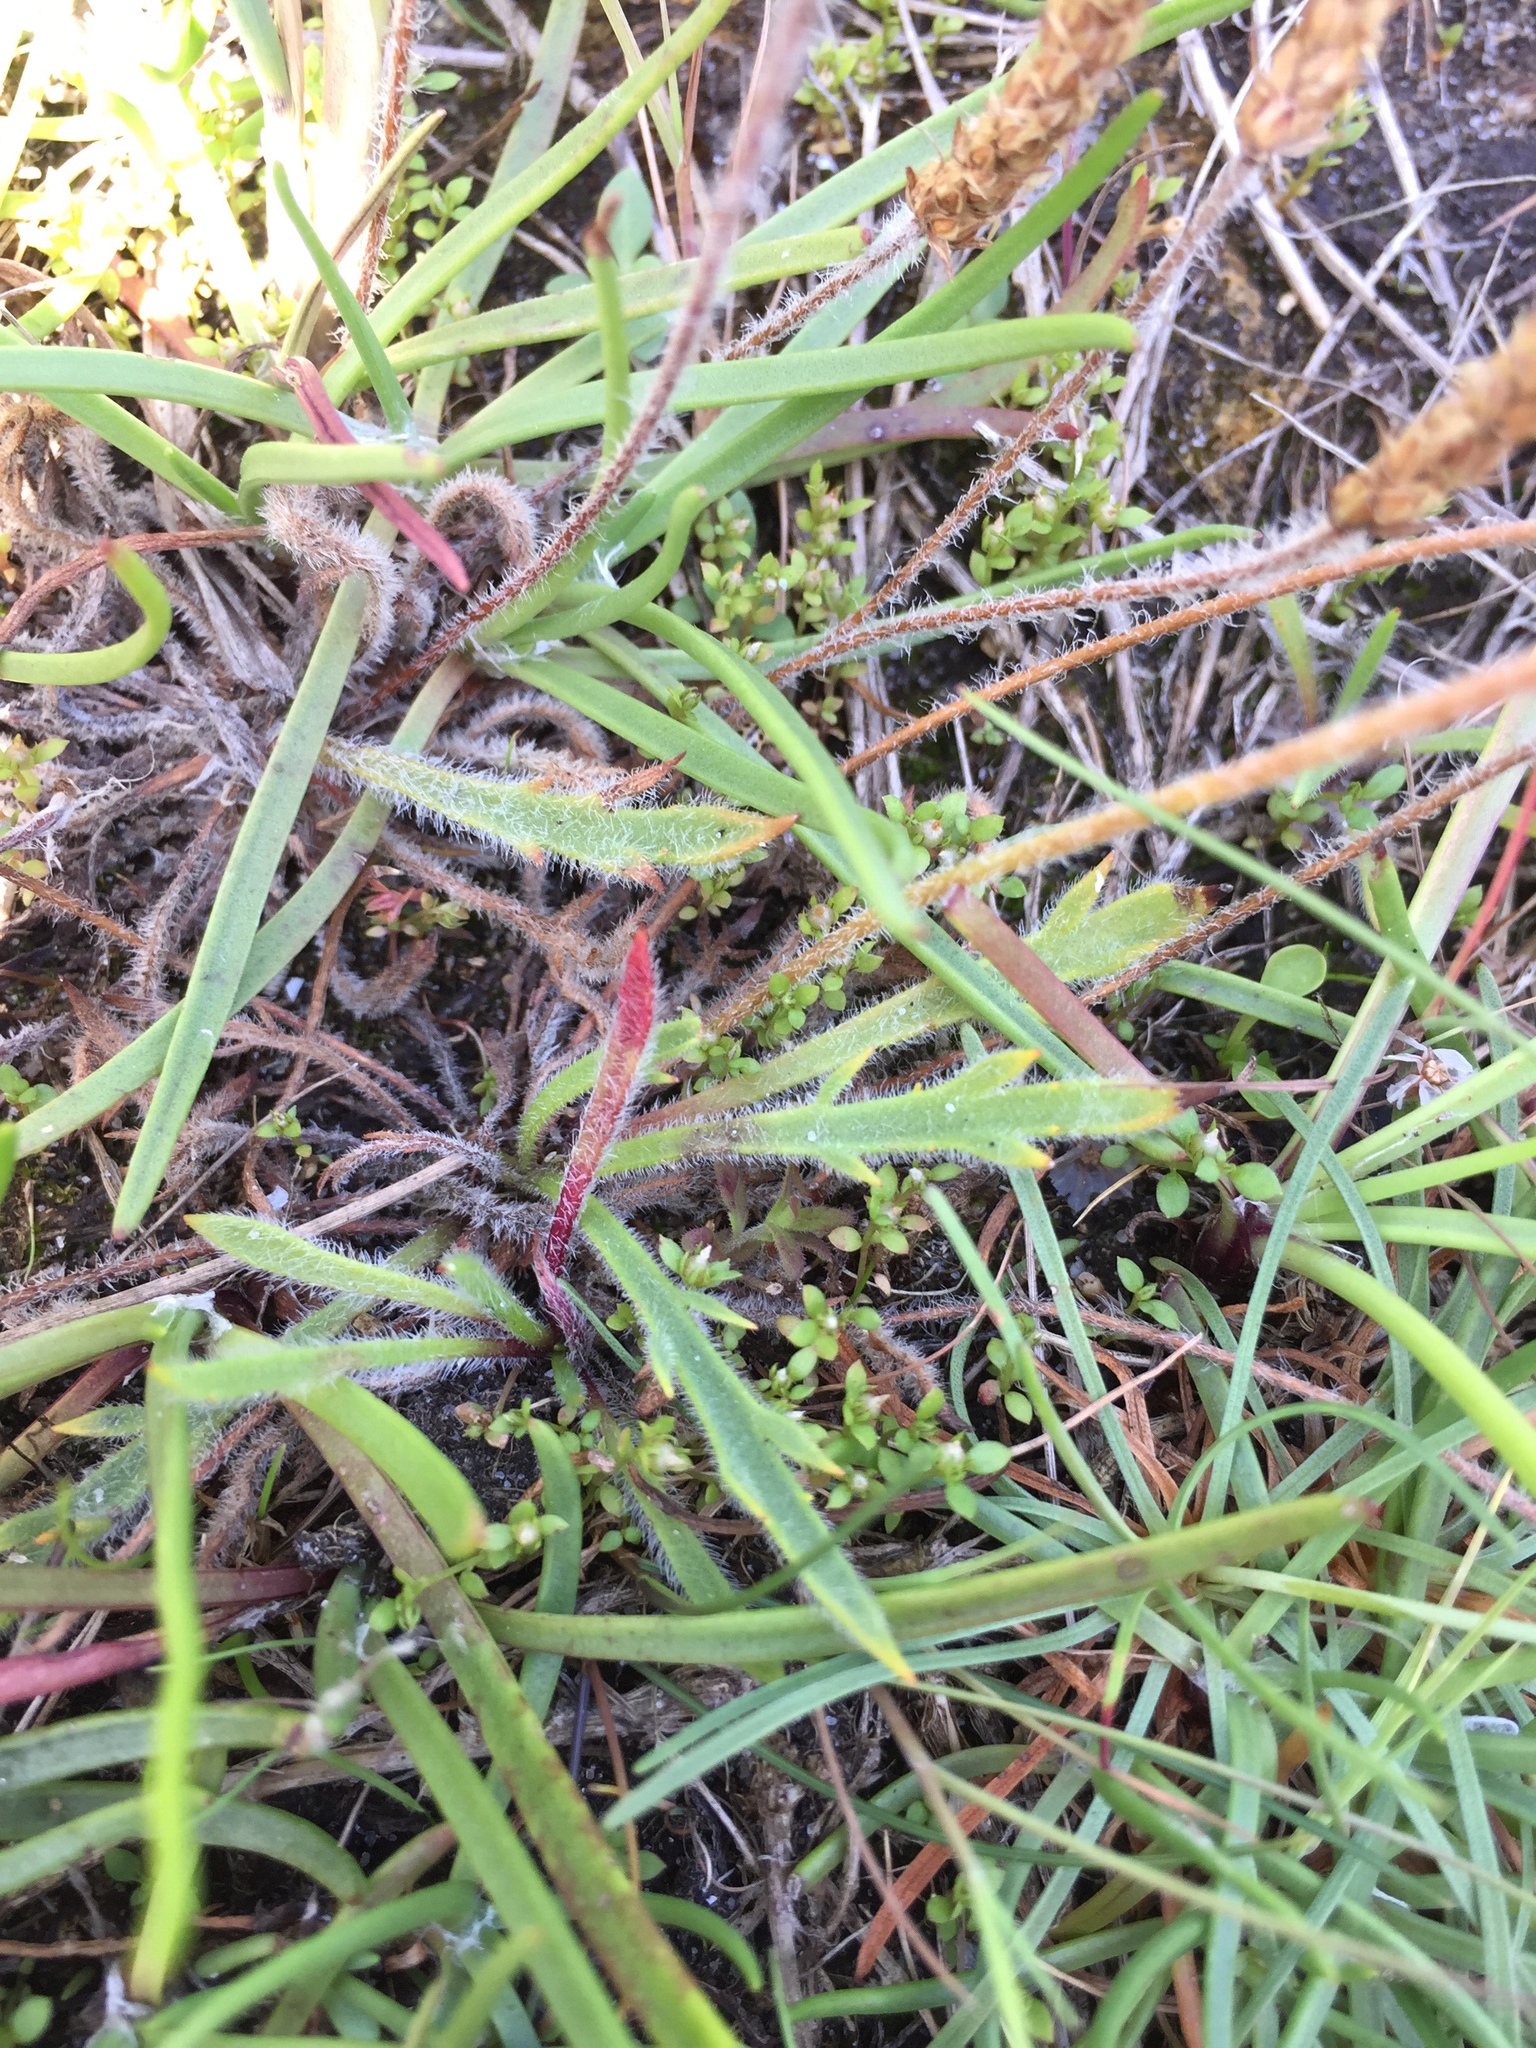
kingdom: Plantae
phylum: Tracheophyta
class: Magnoliopsida
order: Lamiales
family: Plantaginaceae
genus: Plantago
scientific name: Plantago coronopus
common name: Buck's-horn plantain
